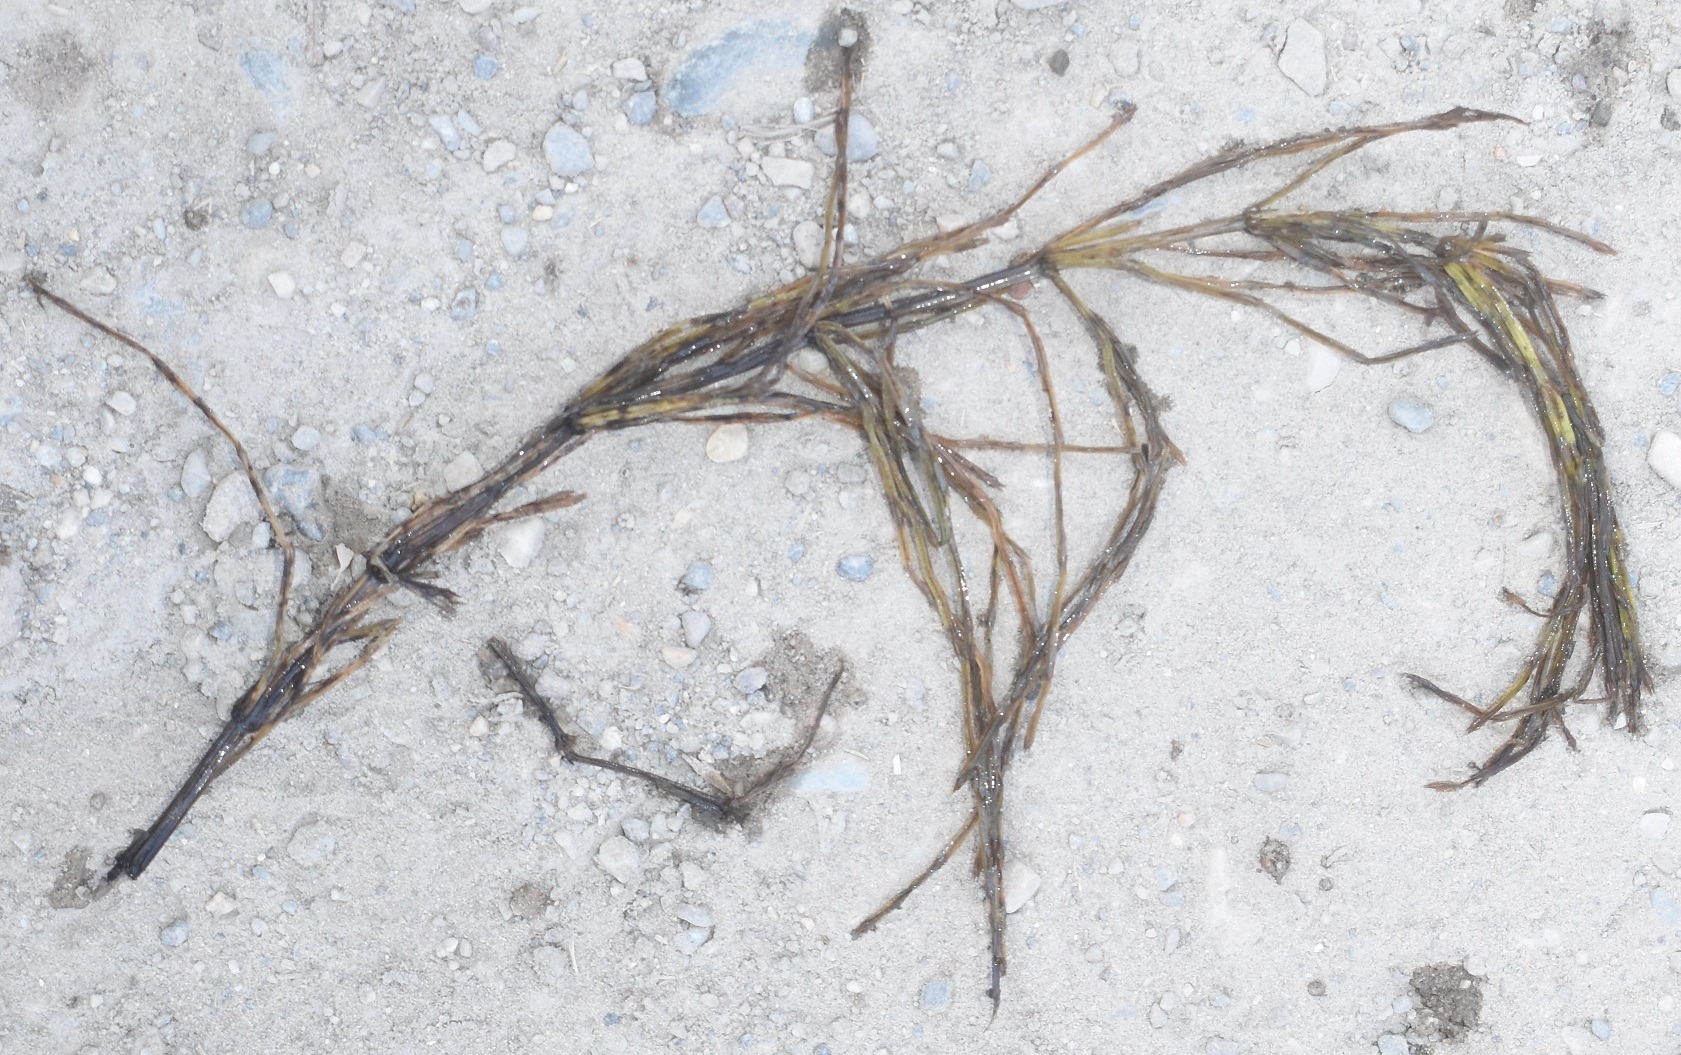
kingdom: Plantae
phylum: Tracheophyta
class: Polypodiopsida
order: Equisetales
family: Equisetaceae
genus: Equisetum
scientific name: Equisetum arvense
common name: Field horsetail
